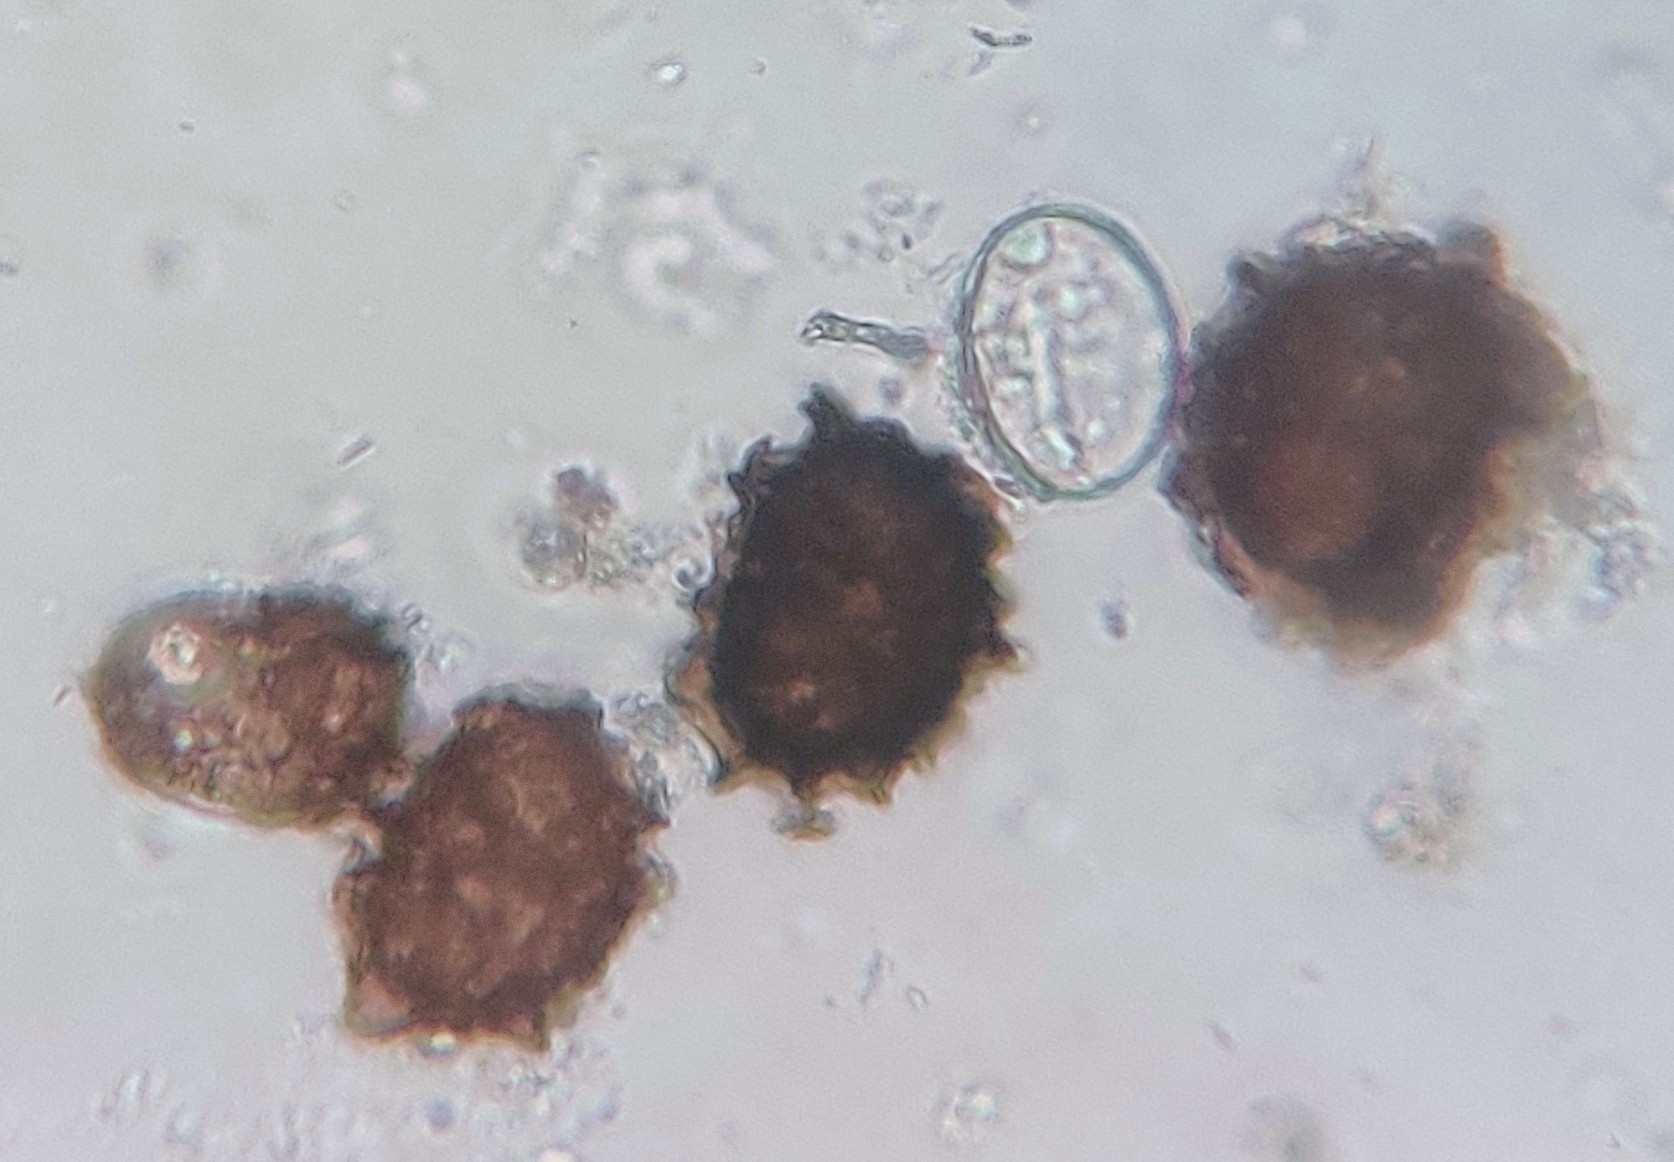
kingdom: Plantae
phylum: Tracheophyta
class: Polypodiopsida
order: Polypodiales
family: Aspleniaceae
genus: Asplenium
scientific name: Asplenium adiantum-nigrum
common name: Black spleenwort
